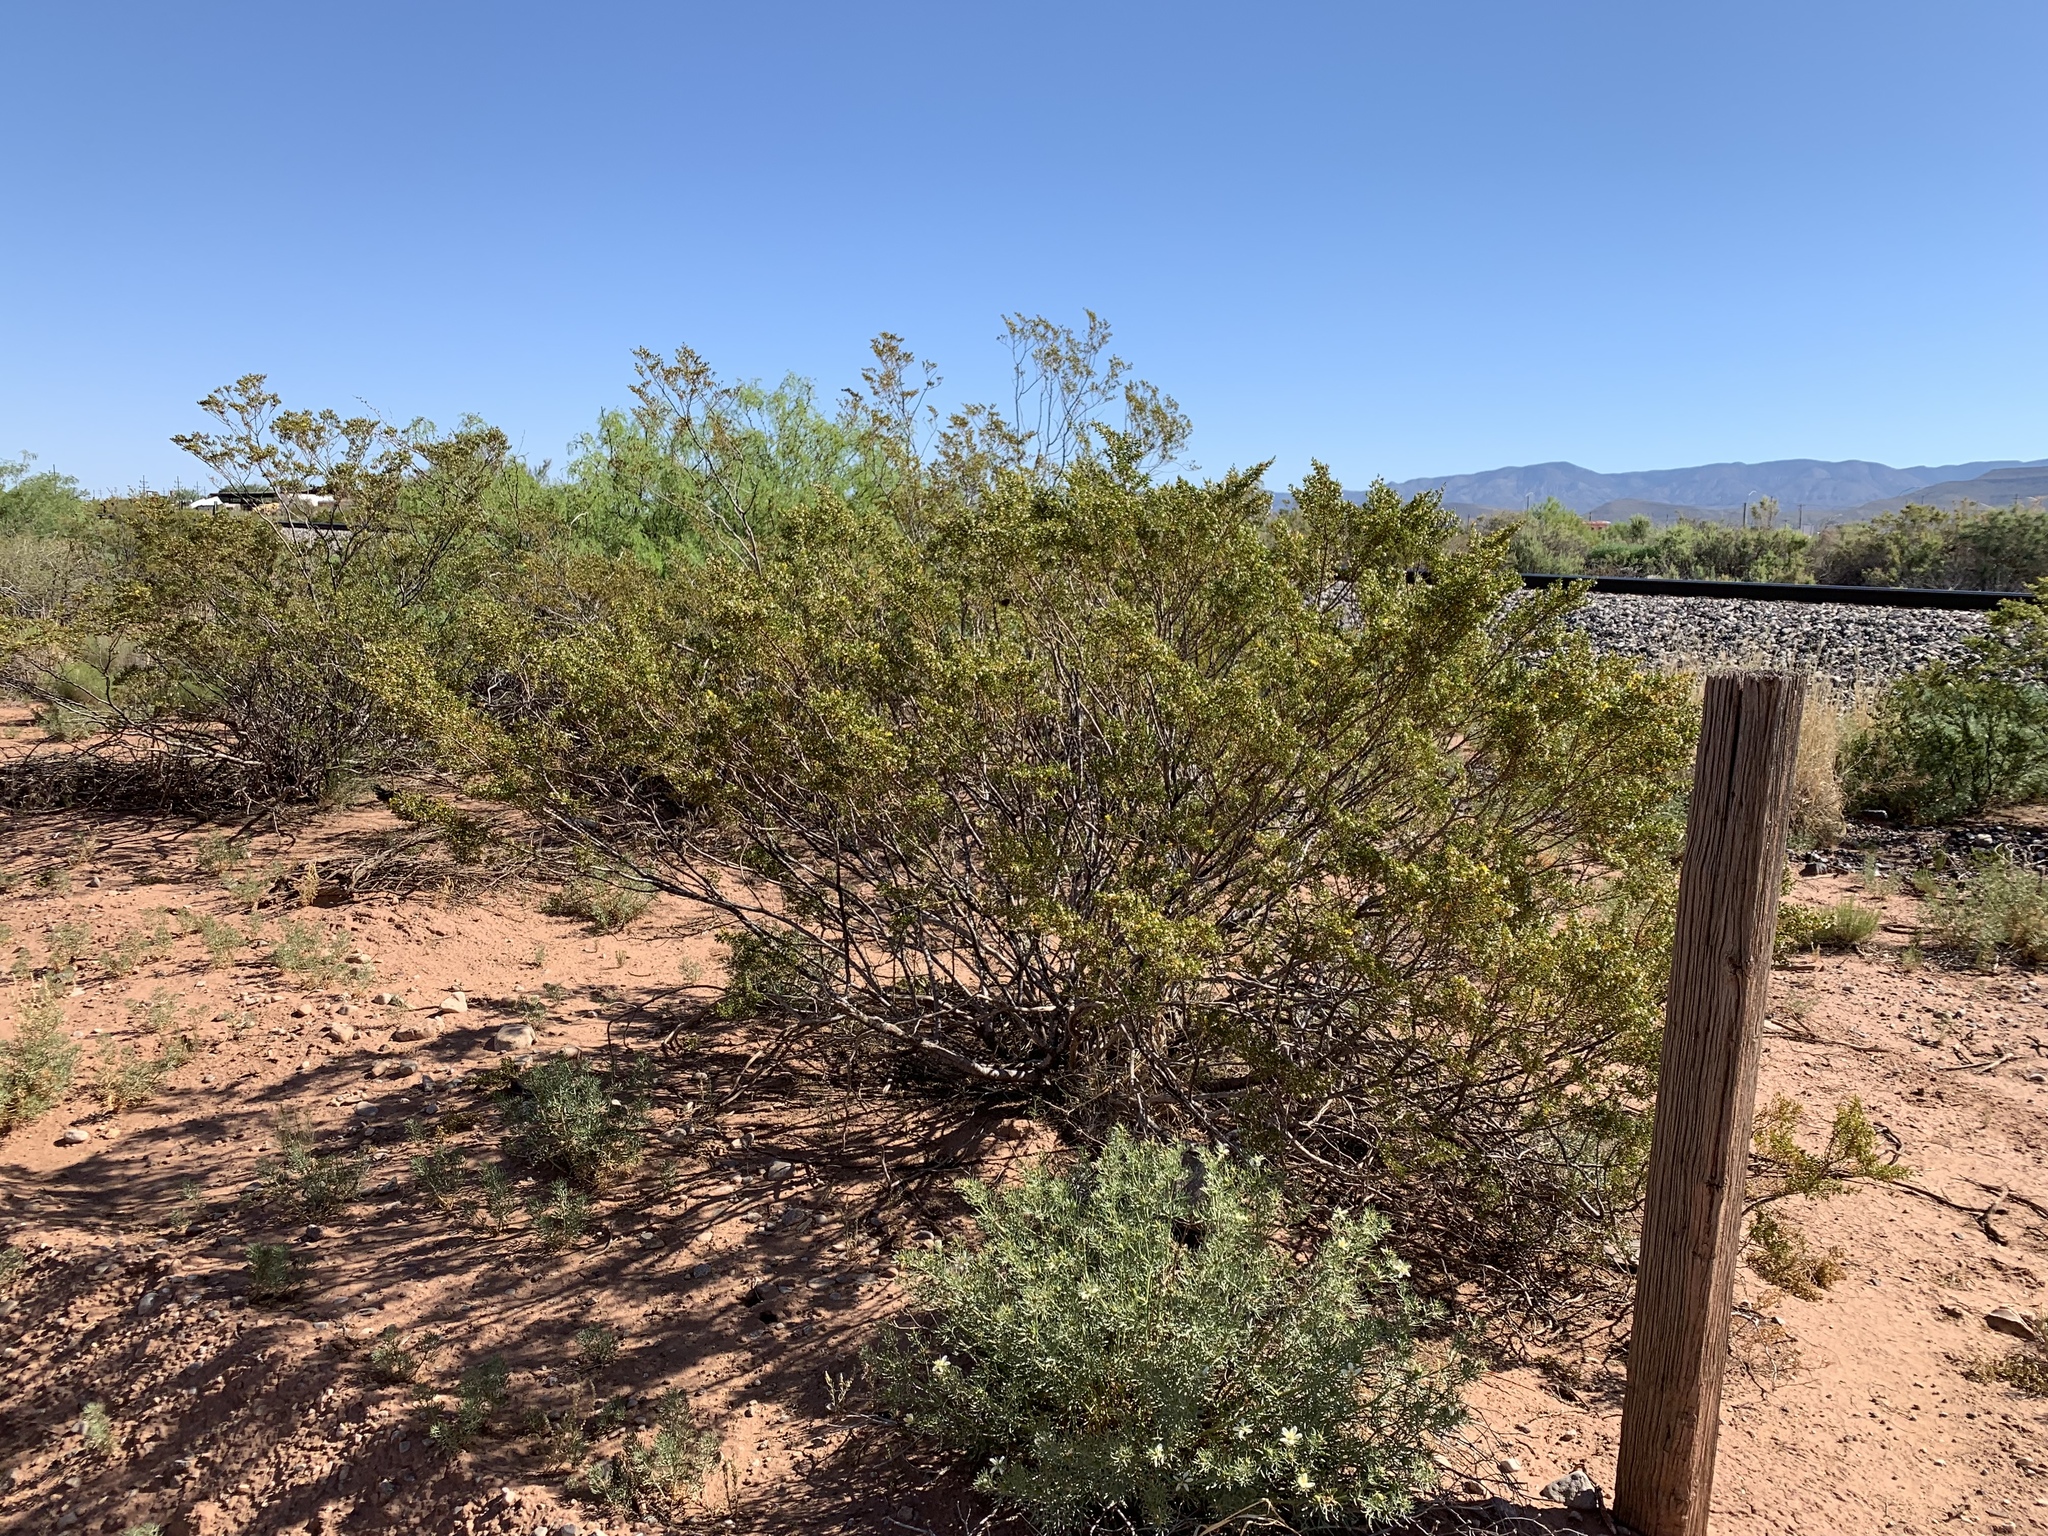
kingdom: Plantae
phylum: Tracheophyta
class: Magnoliopsida
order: Zygophyllales
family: Zygophyllaceae
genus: Larrea
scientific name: Larrea tridentata
